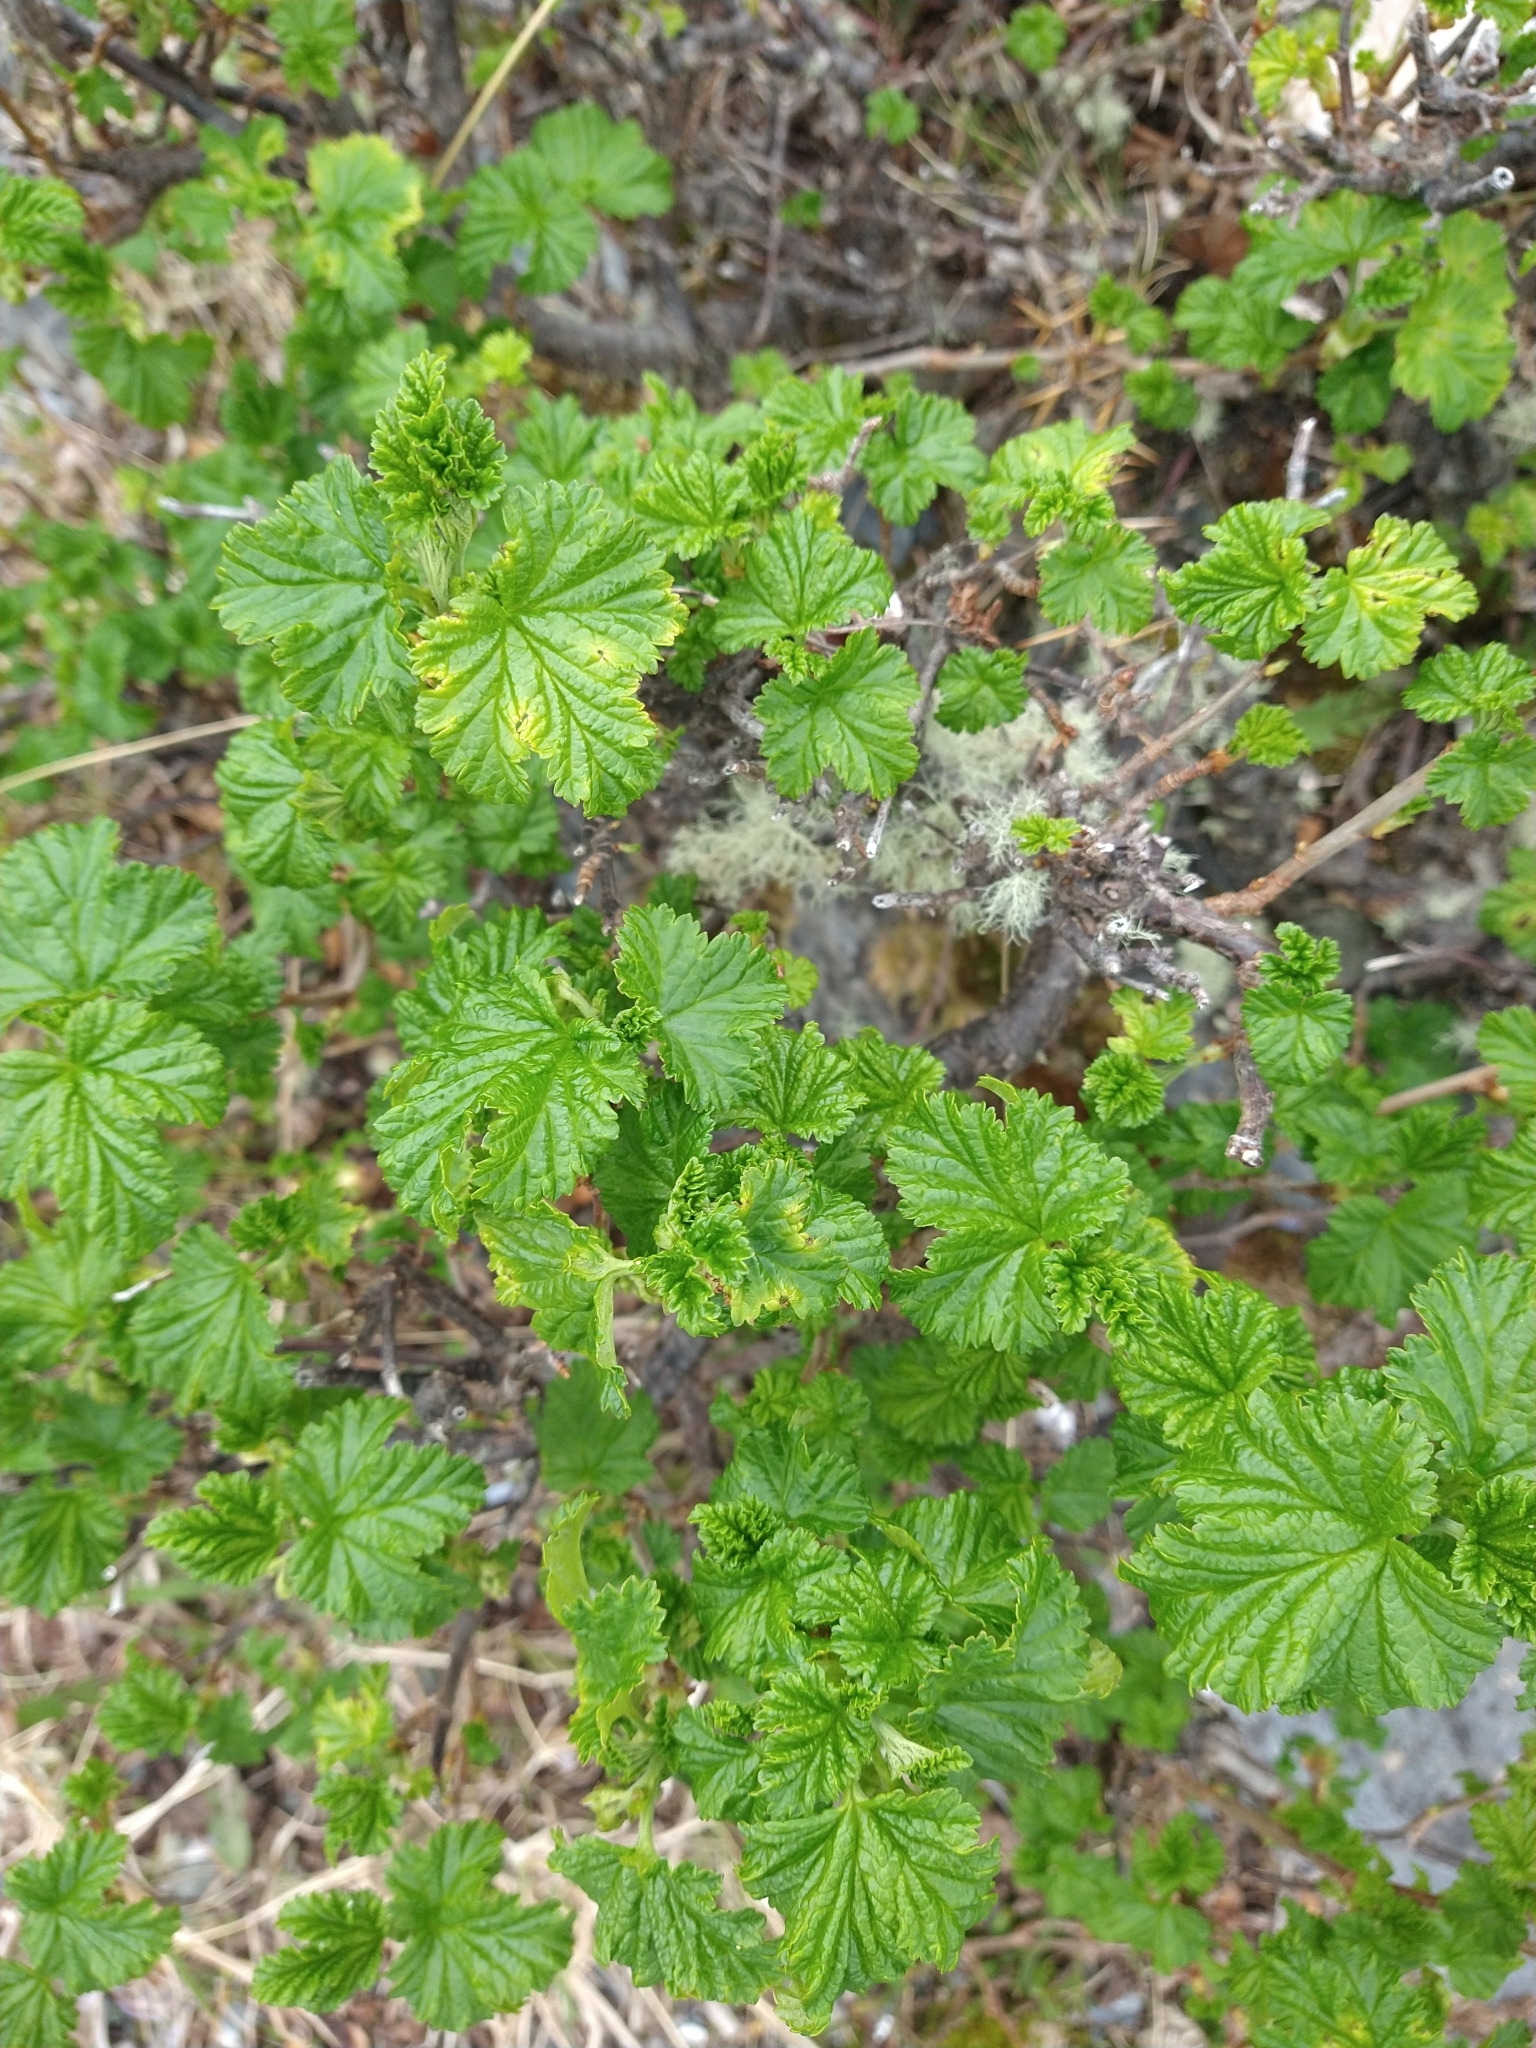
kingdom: Plantae
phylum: Tracheophyta
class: Magnoliopsida
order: Saxifragales
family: Grossulariaceae
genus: Ribes
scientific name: Ribes magellanicum
